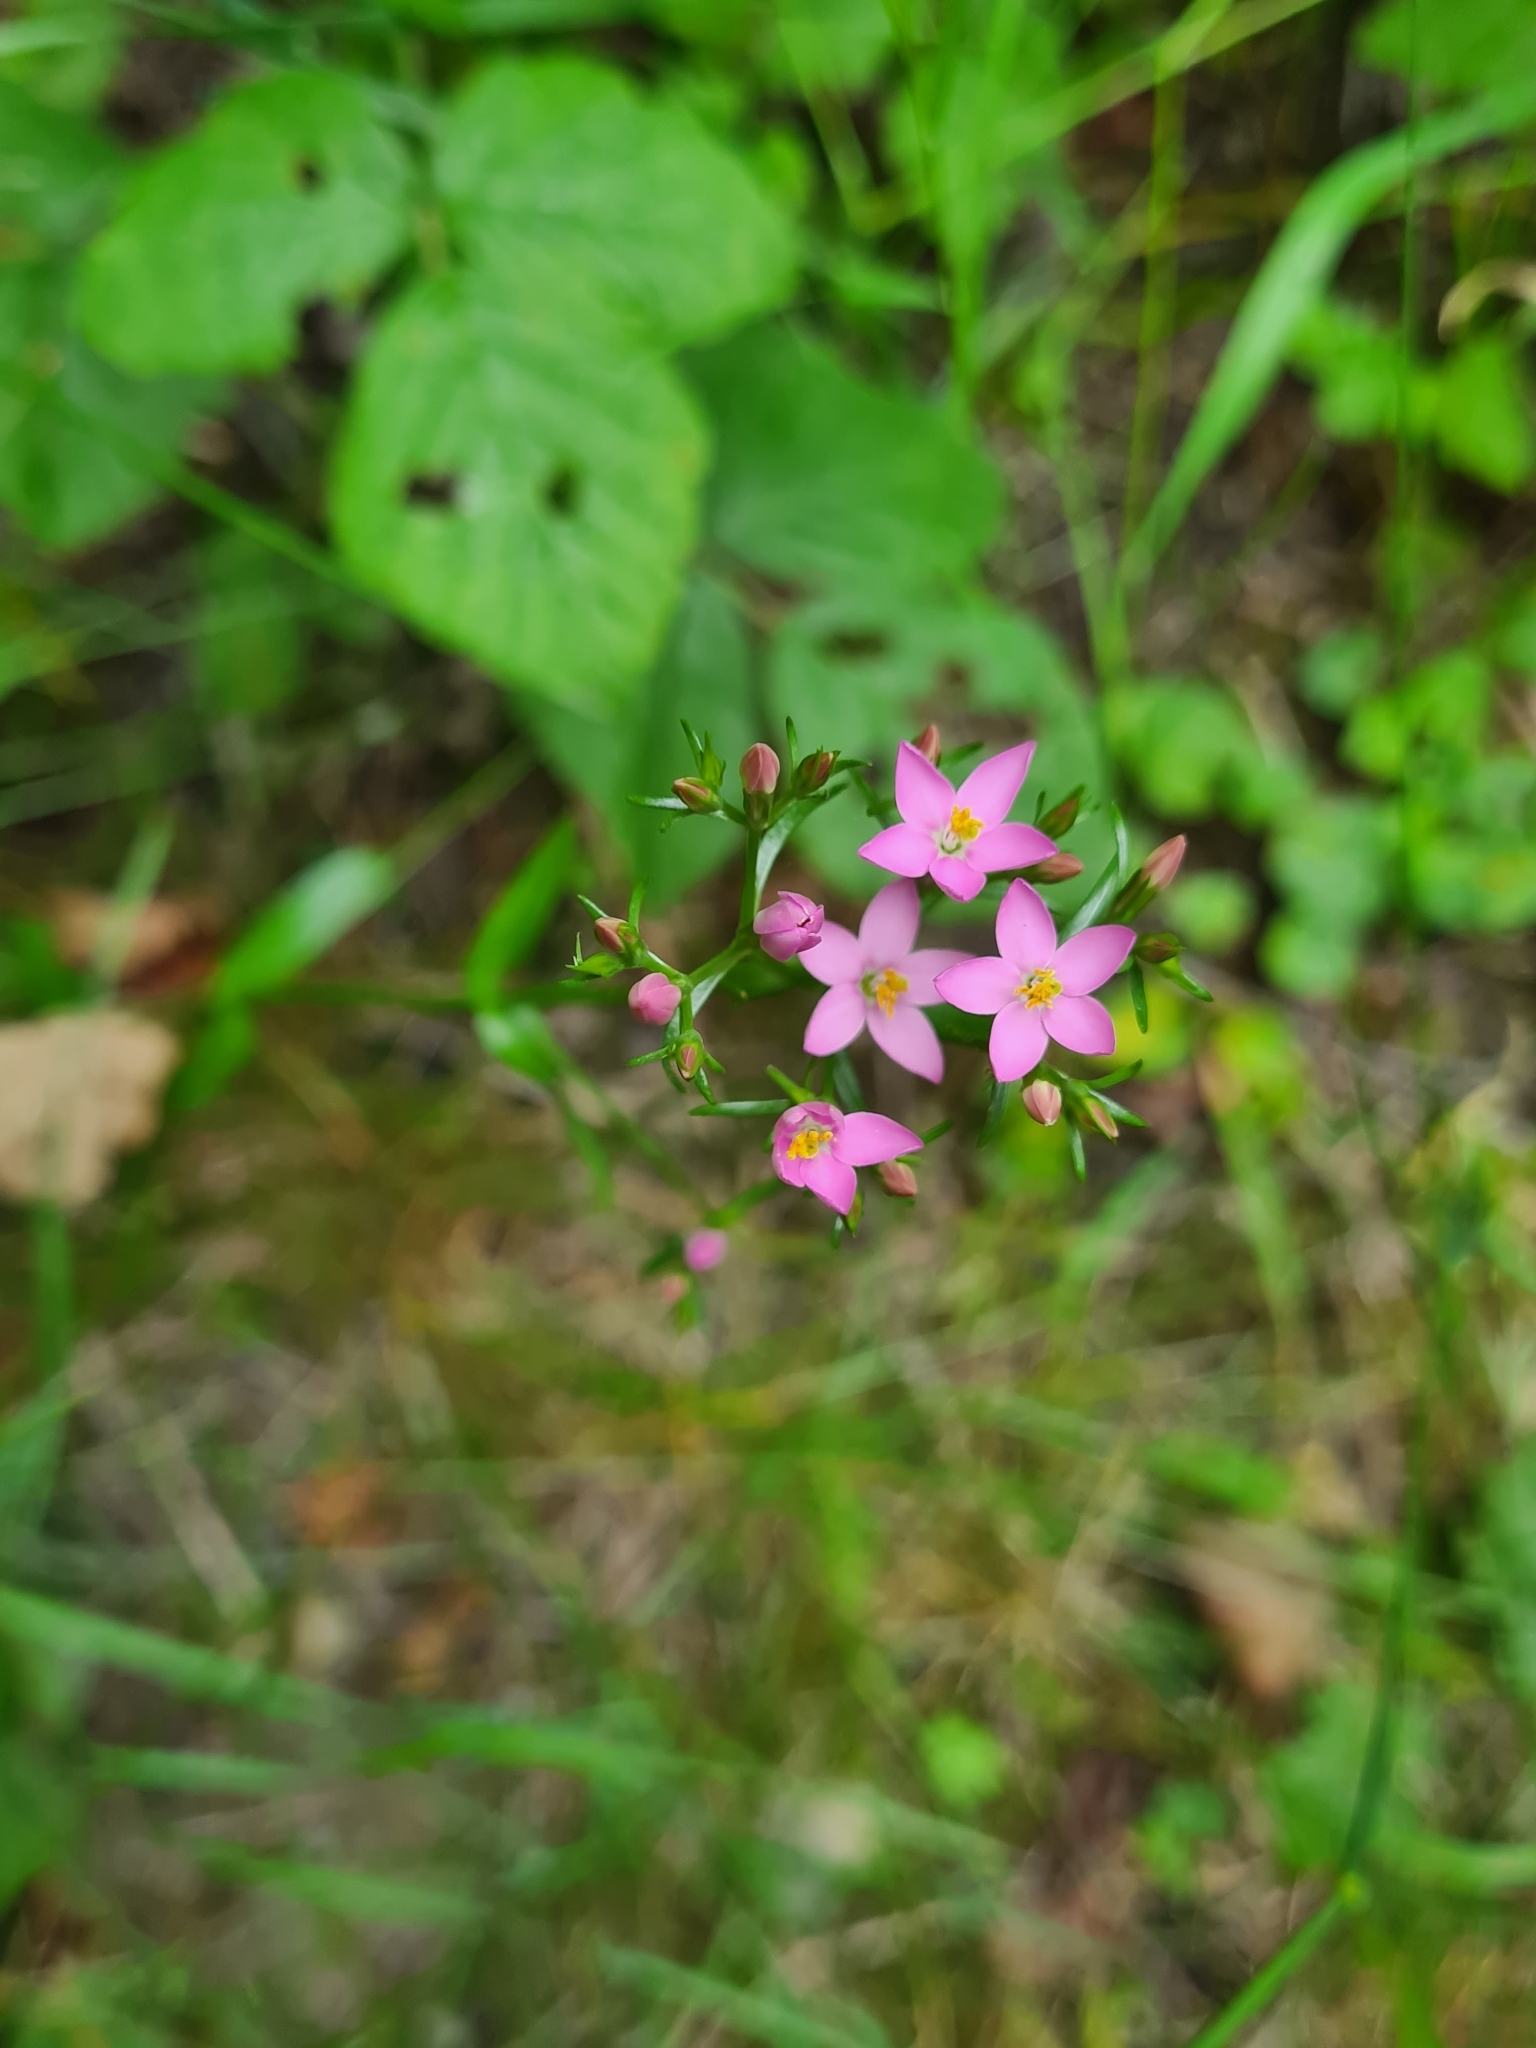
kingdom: Plantae
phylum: Tracheophyta
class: Magnoliopsida
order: Gentianales
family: Gentianaceae
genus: Centaurium
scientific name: Centaurium erythraea
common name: Common centaury
